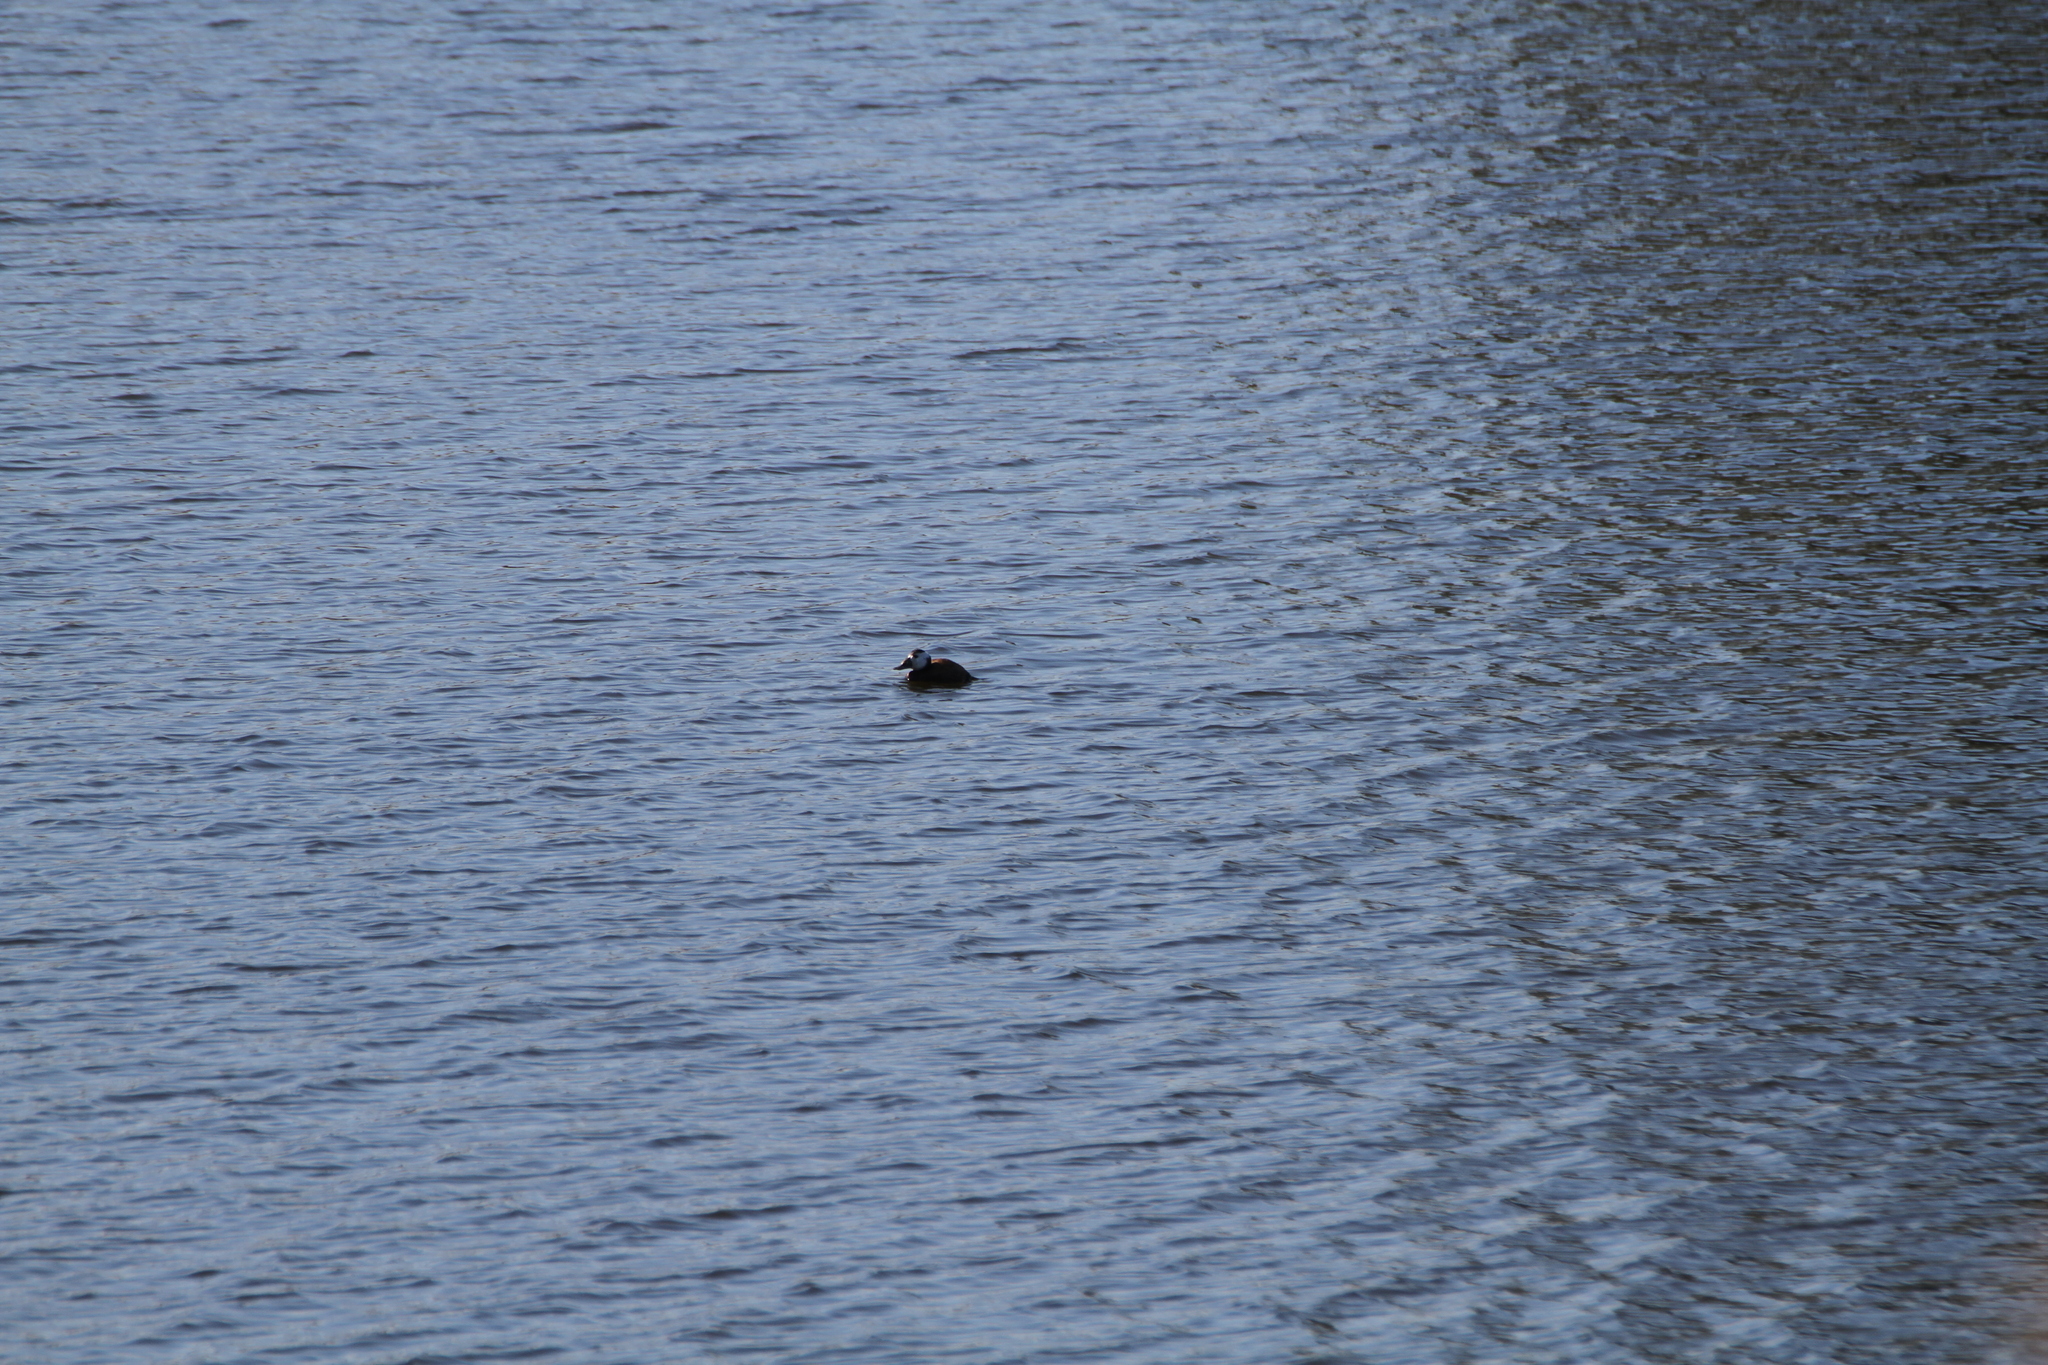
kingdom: Animalia
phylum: Chordata
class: Aves
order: Anseriformes
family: Anatidae
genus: Oxyura
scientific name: Oxyura leucocephala
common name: White-headed duck
